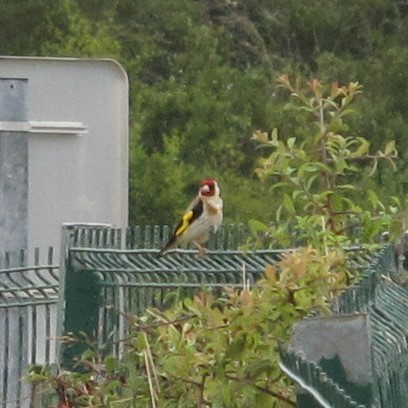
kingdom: Animalia
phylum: Chordata
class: Aves
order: Passeriformes
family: Fringillidae
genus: Carduelis
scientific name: Carduelis carduelis
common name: European goldfinch
